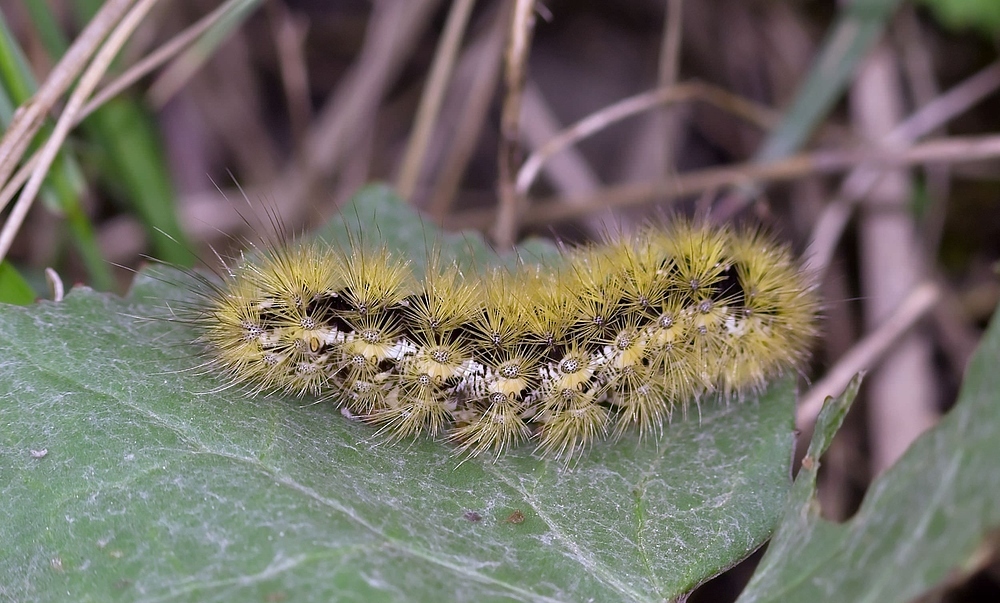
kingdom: Animalia
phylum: Arthropoda
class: Insecta
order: Lepidoptera
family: Erebidae
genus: Rhyparia
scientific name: Rhyparia purpurata
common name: Purple tiger
